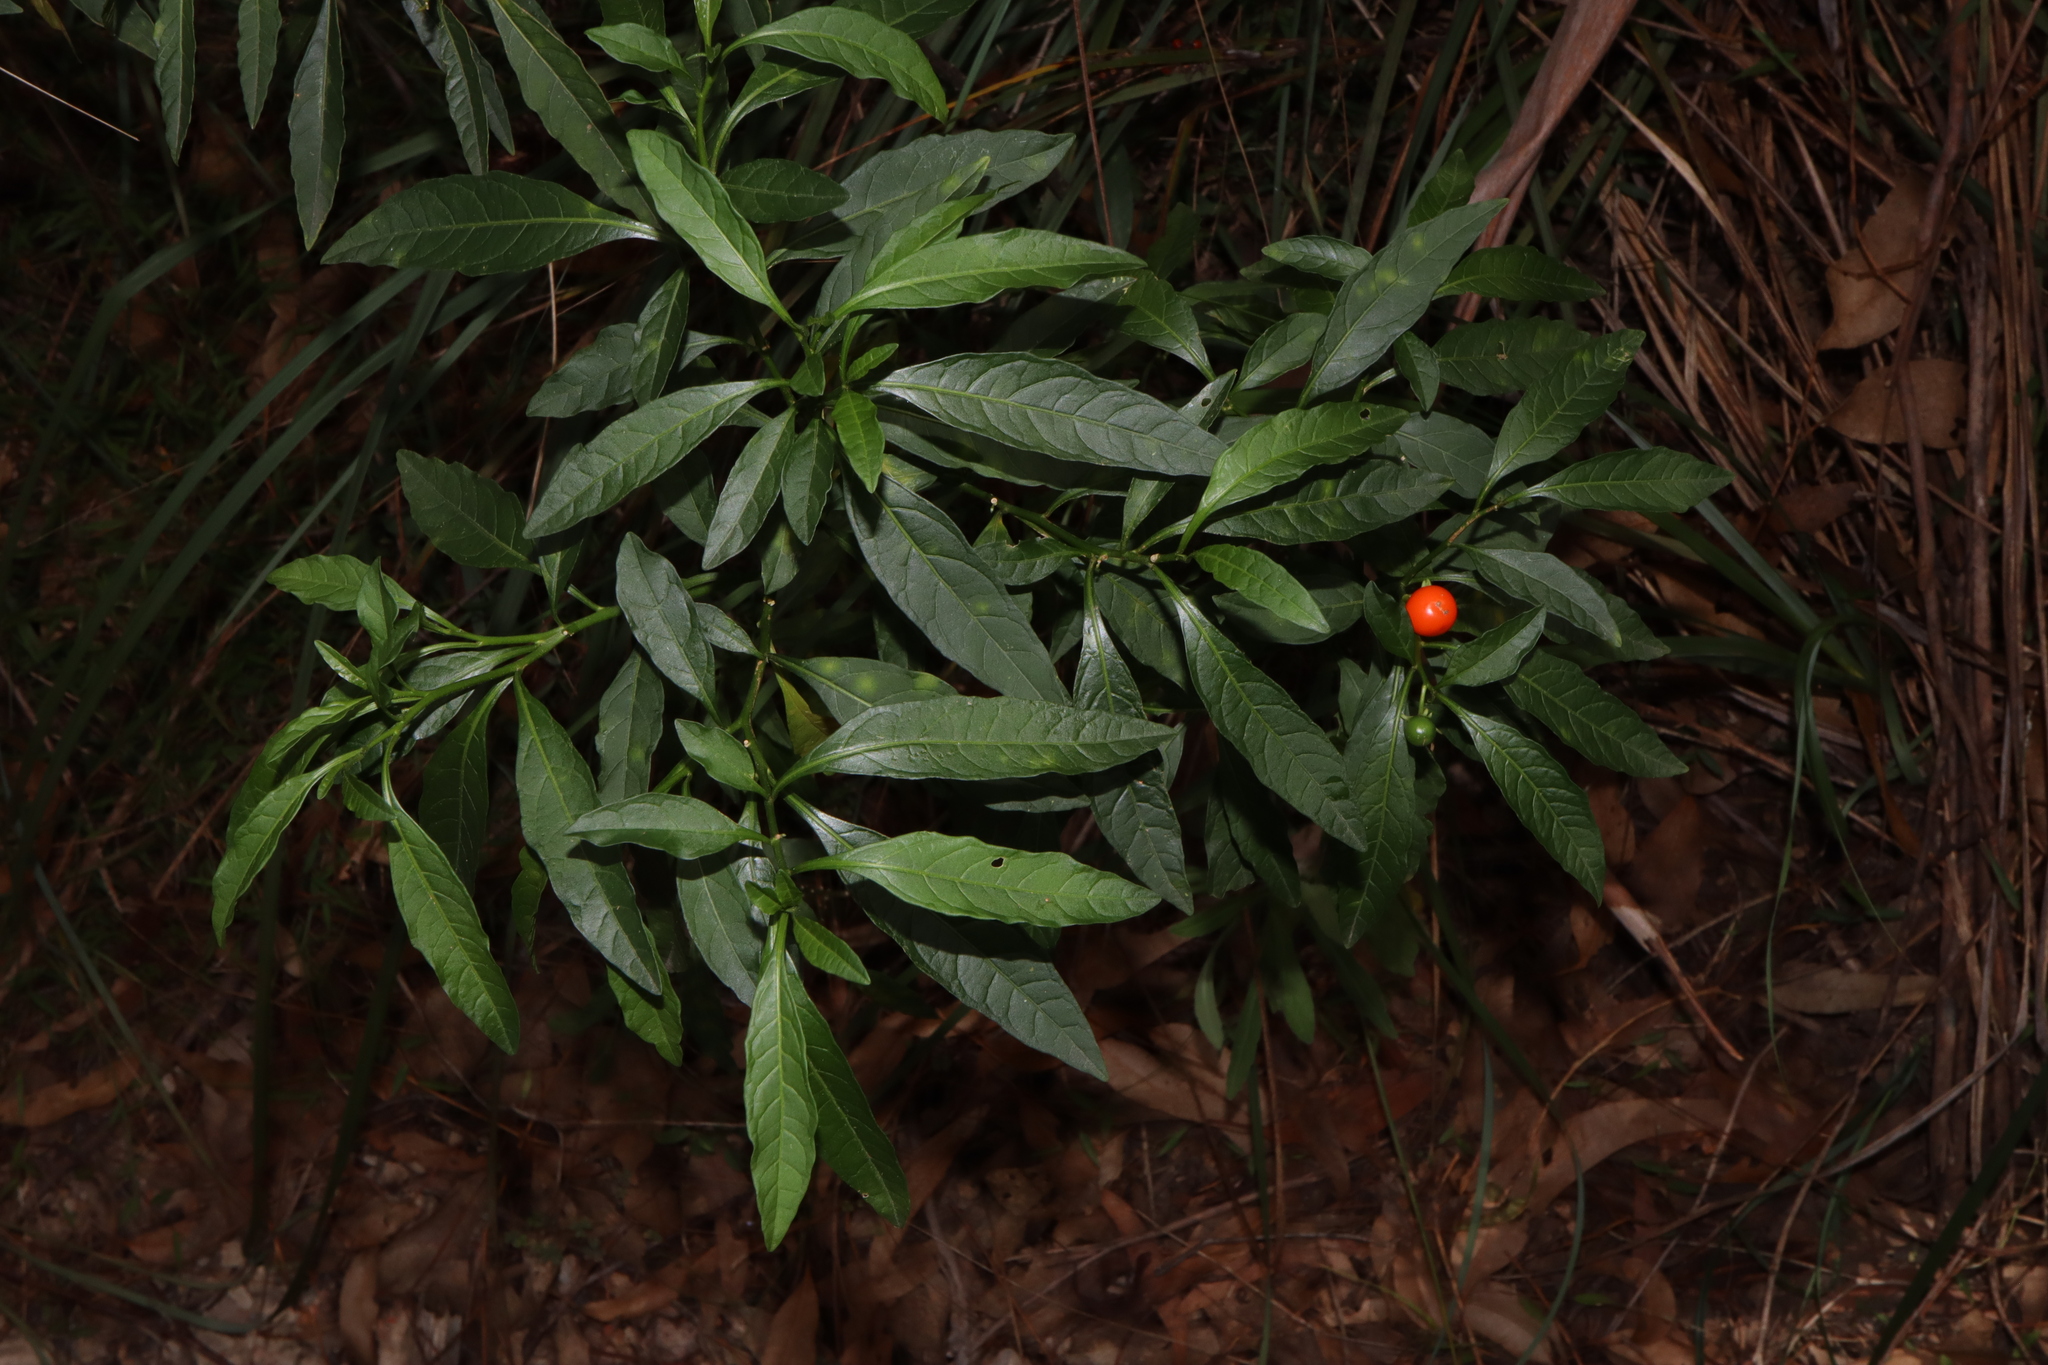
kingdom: Plantae
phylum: Tracheophyta
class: Magnoliopsida
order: Solanales
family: Solanaceae
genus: Solanum
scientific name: Solanum pseudocapsicum
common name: Jerusalem cherry
